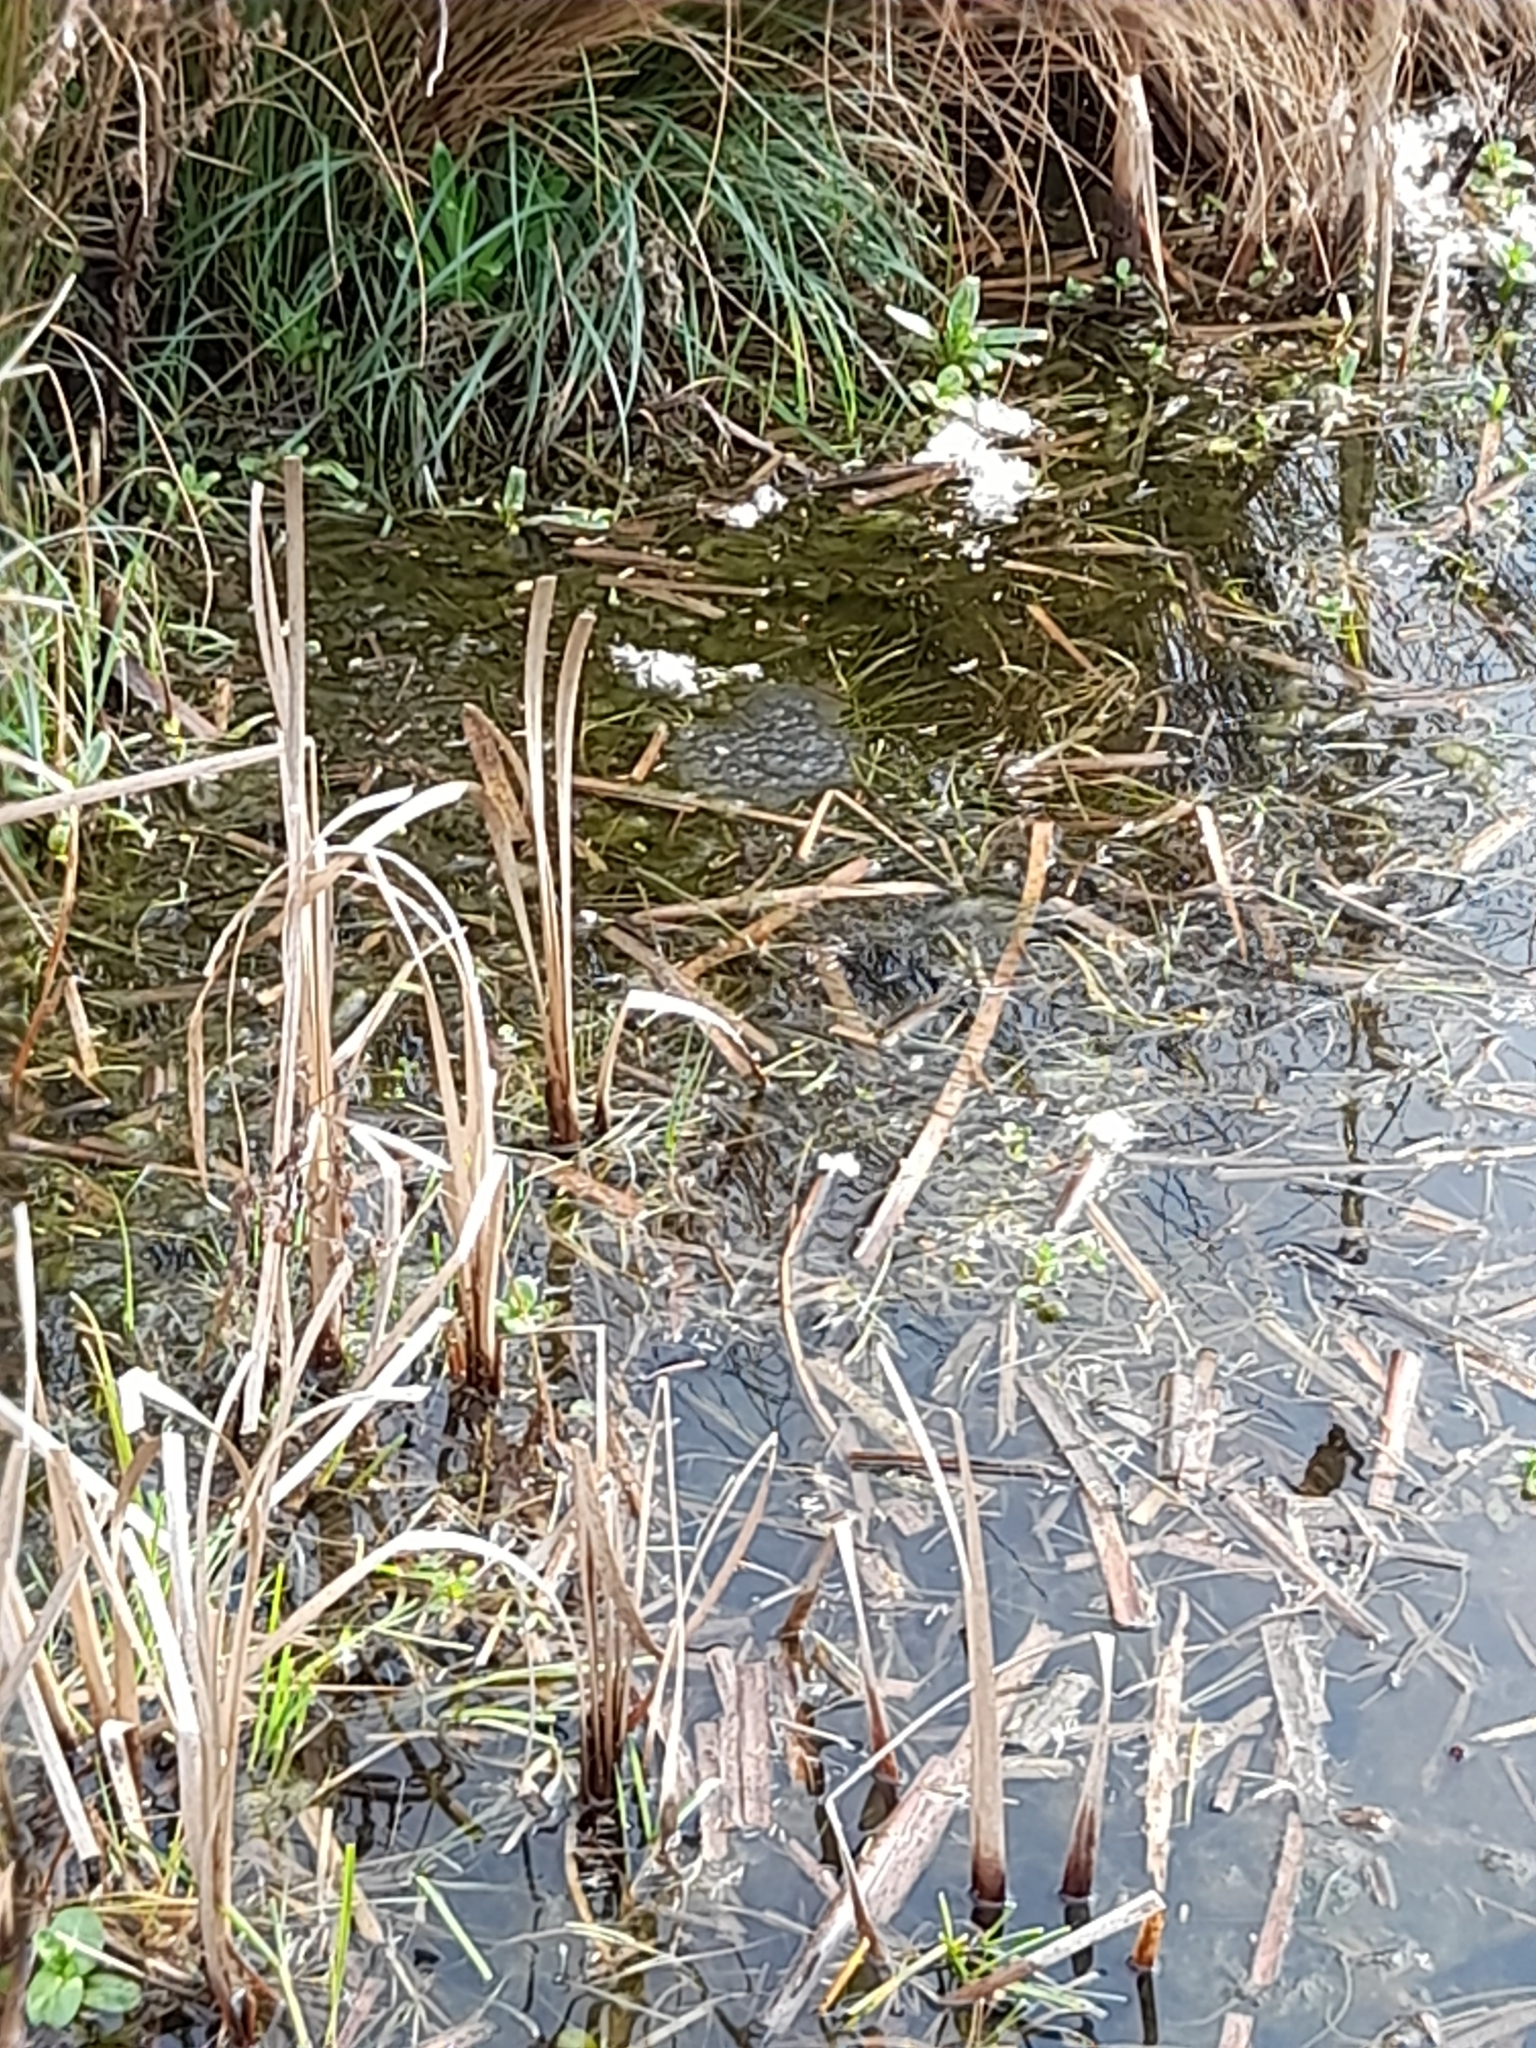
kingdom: Animalia
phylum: Chordata
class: Amphibia
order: Anura
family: Ranidae
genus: Rana
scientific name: Rana temporaria
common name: Common frog
